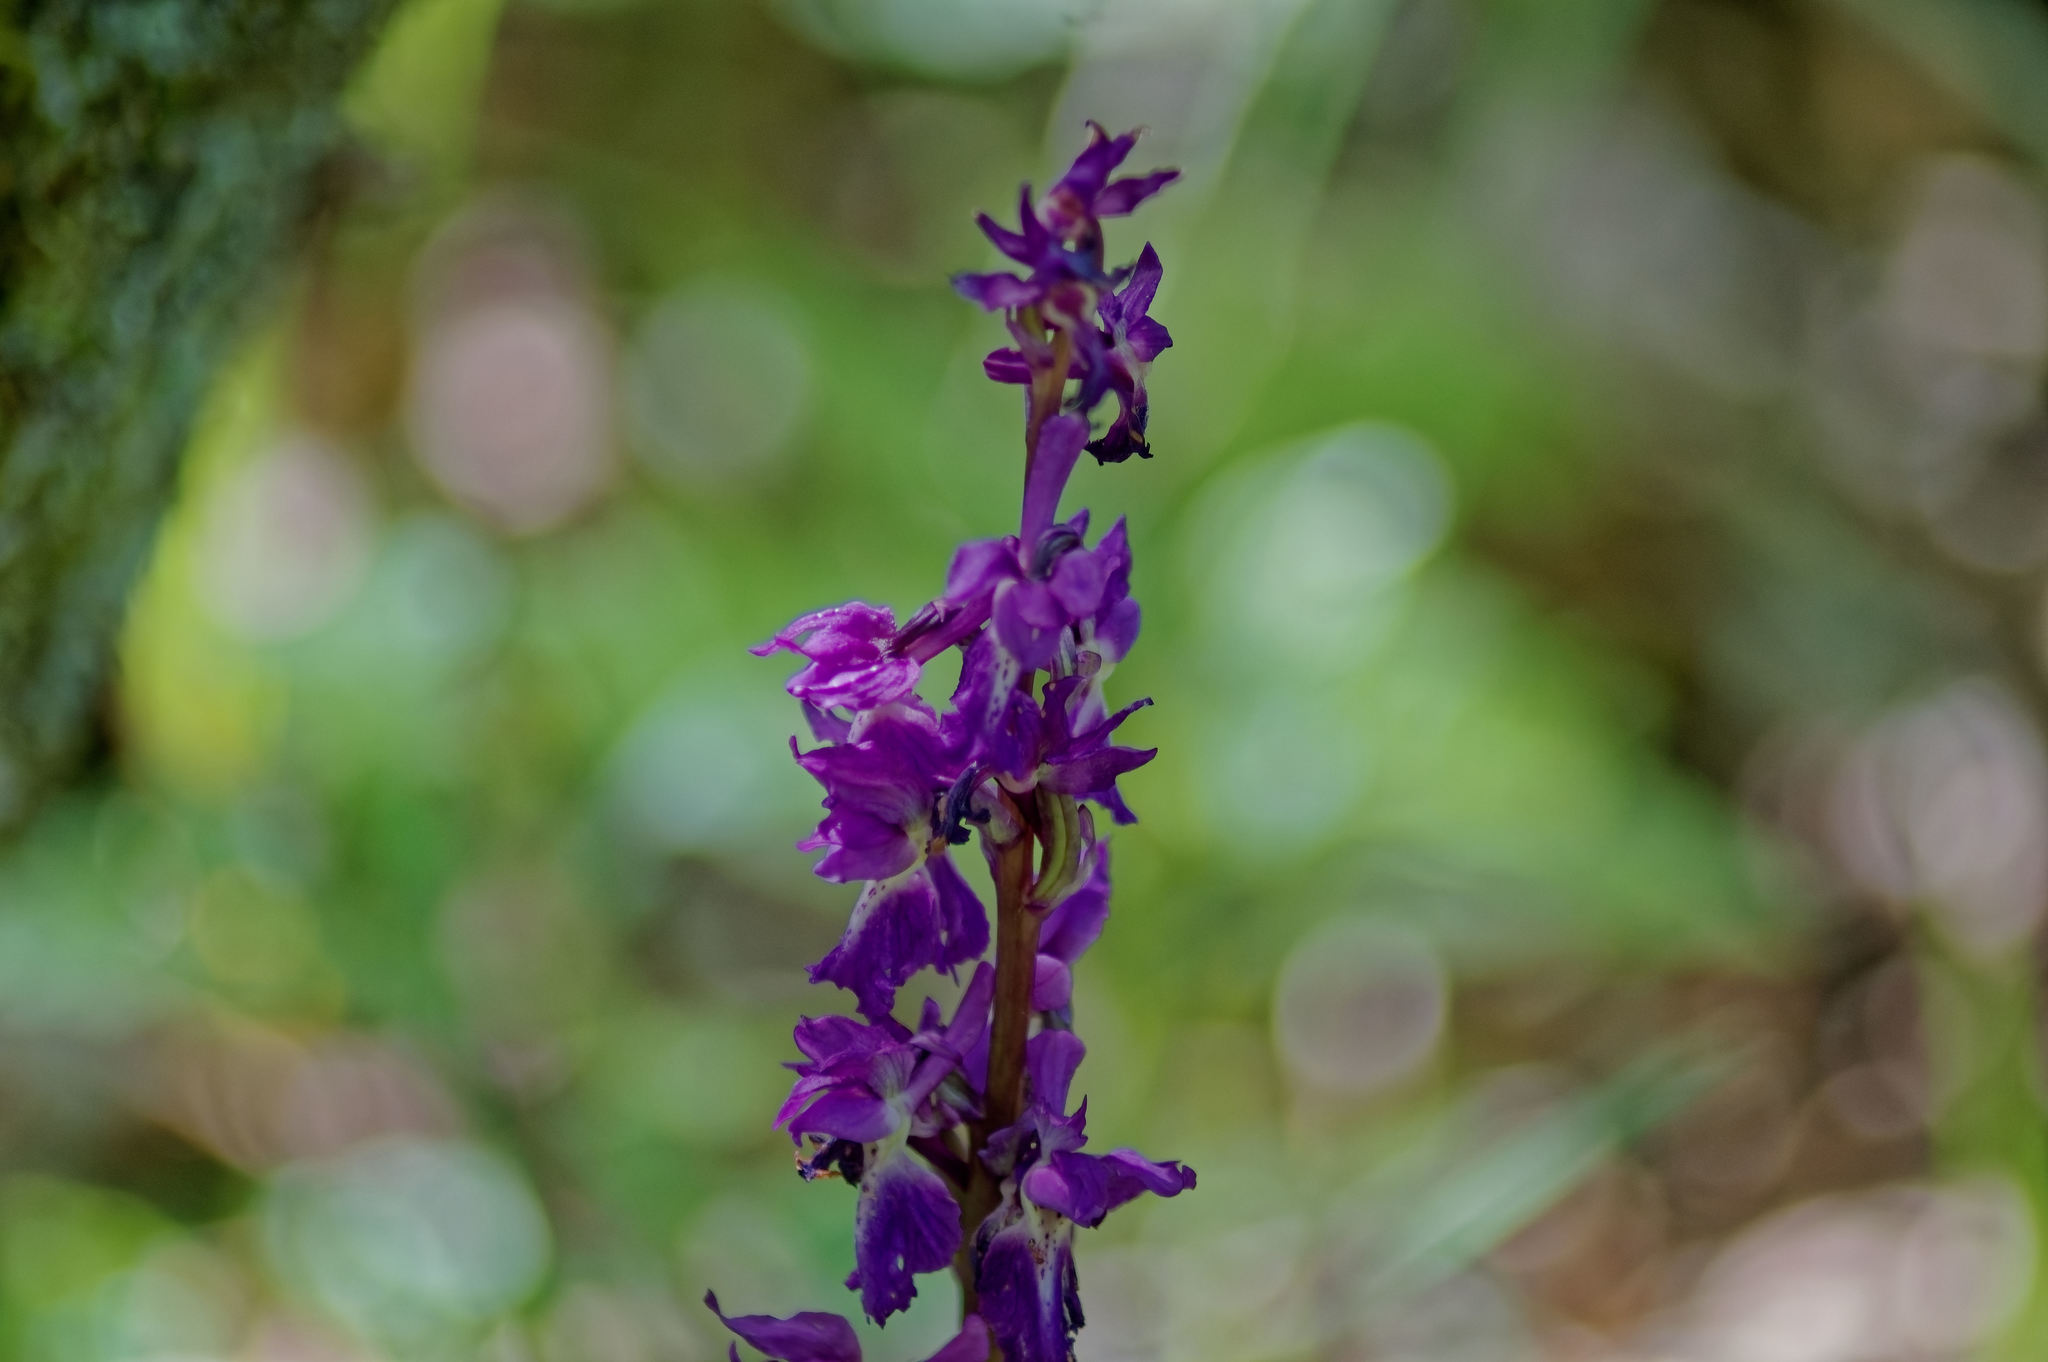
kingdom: Plantae
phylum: Tracheophyta
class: Liliopsida
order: Asparagales
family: Orchidaceae
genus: Orchis
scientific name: Orchis mascula
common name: Early-purple orchid
